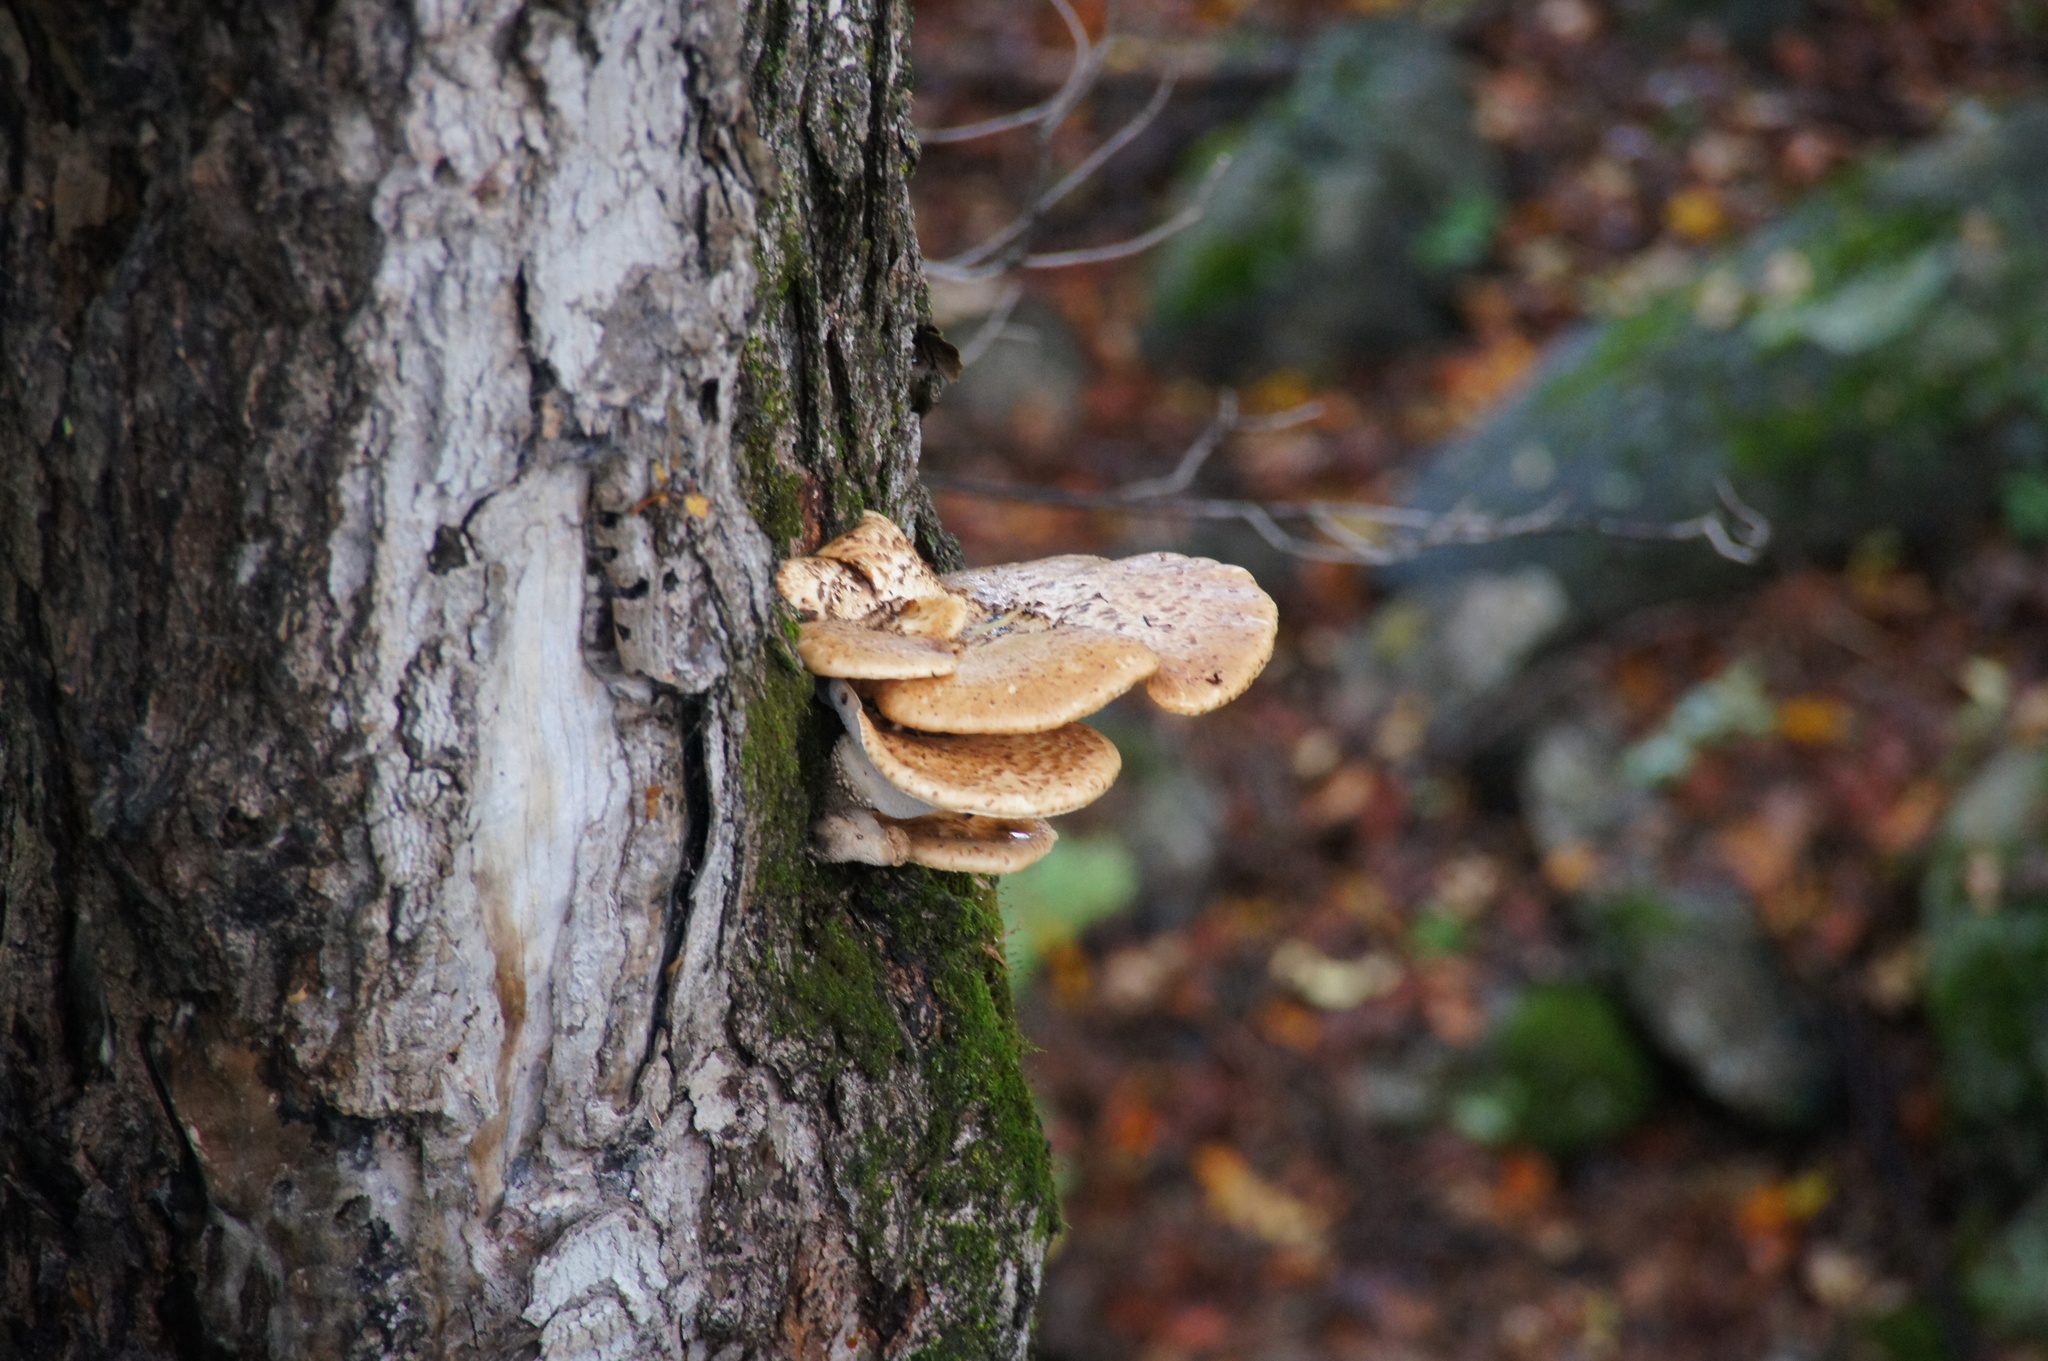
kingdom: Fungi
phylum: Basidiomycota
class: Agaricomycetes
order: Polyporales
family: Polyporaceae
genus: Cerioporus
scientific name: Cerioporus squamosus
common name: Dryad's saddle
